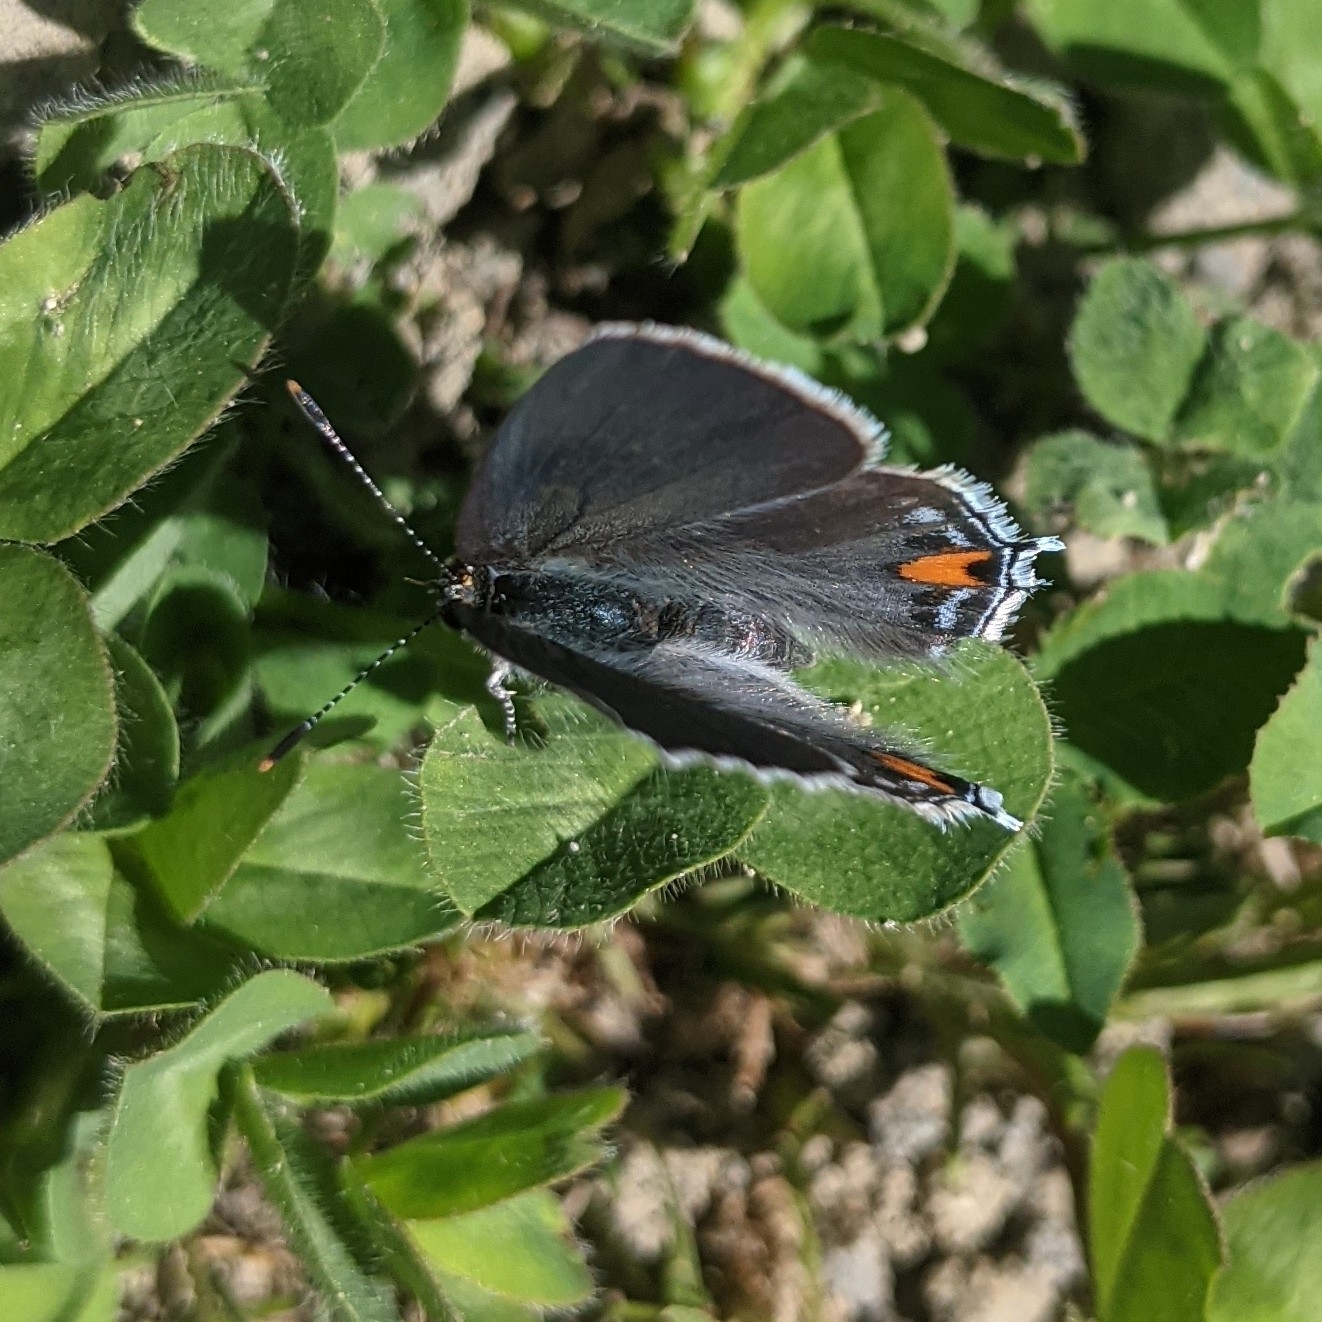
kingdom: Animalia
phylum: Arthropoda
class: Insecta
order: Lepidoptera
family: Lycaenidae
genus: Strymon
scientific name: Strymon melinus
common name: Gray hairstreak
